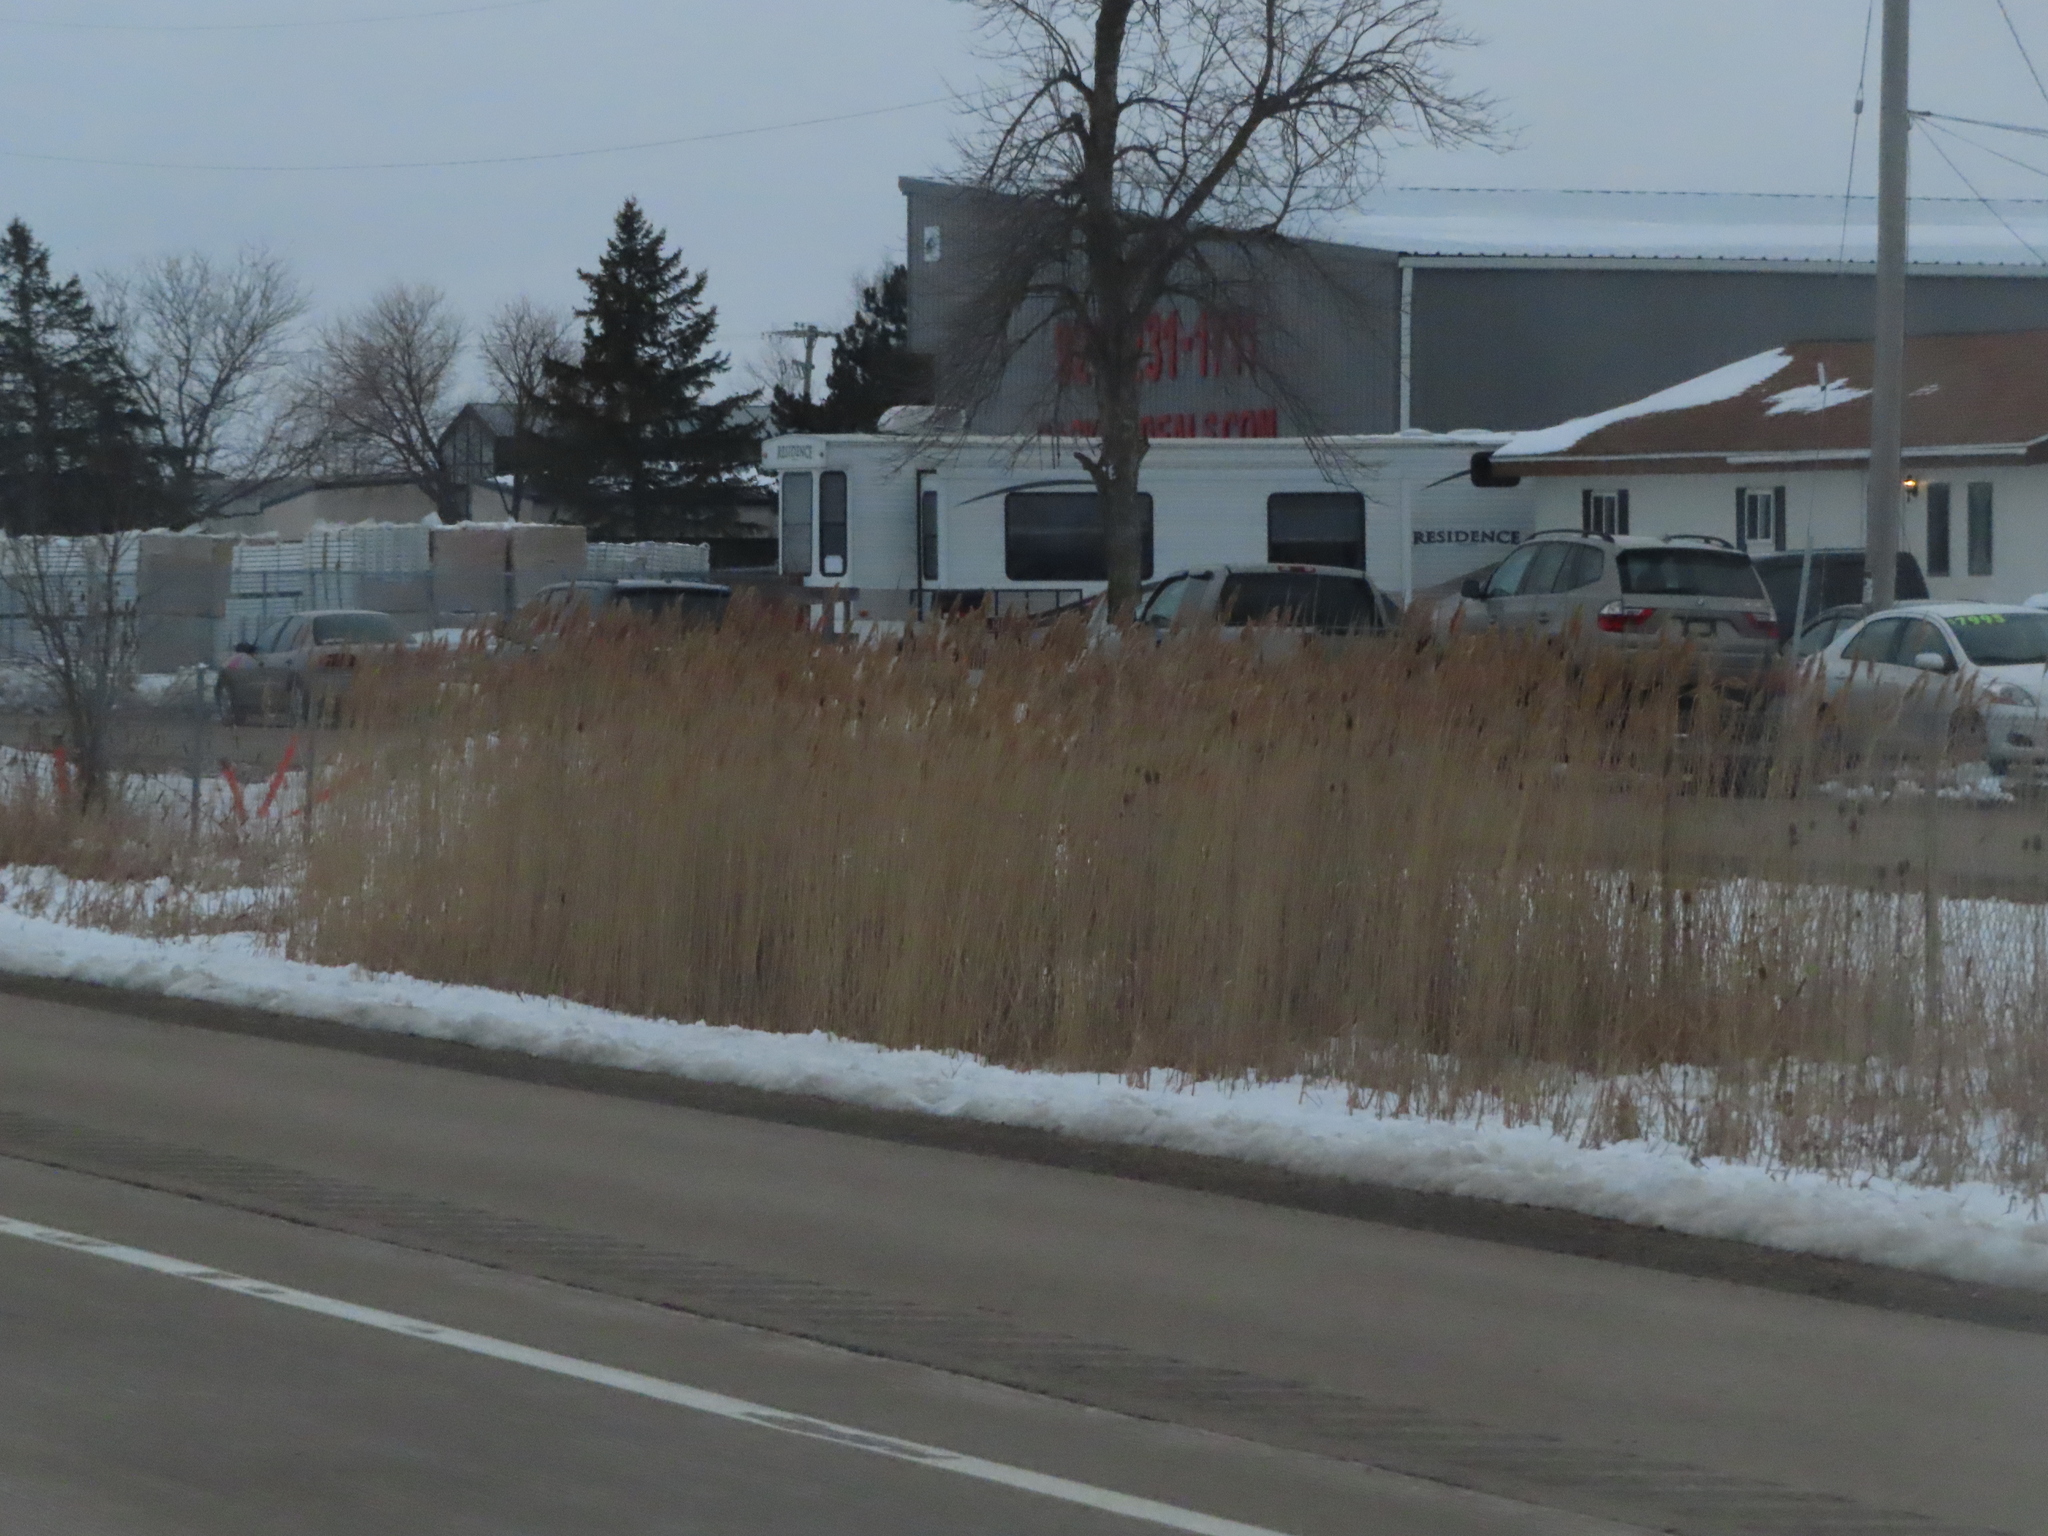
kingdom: Plantae
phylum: Tracheophyta
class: Liliopsida
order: Poales
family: Poaceae
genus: Phragmites
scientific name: Phragmites australis
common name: Common reed
